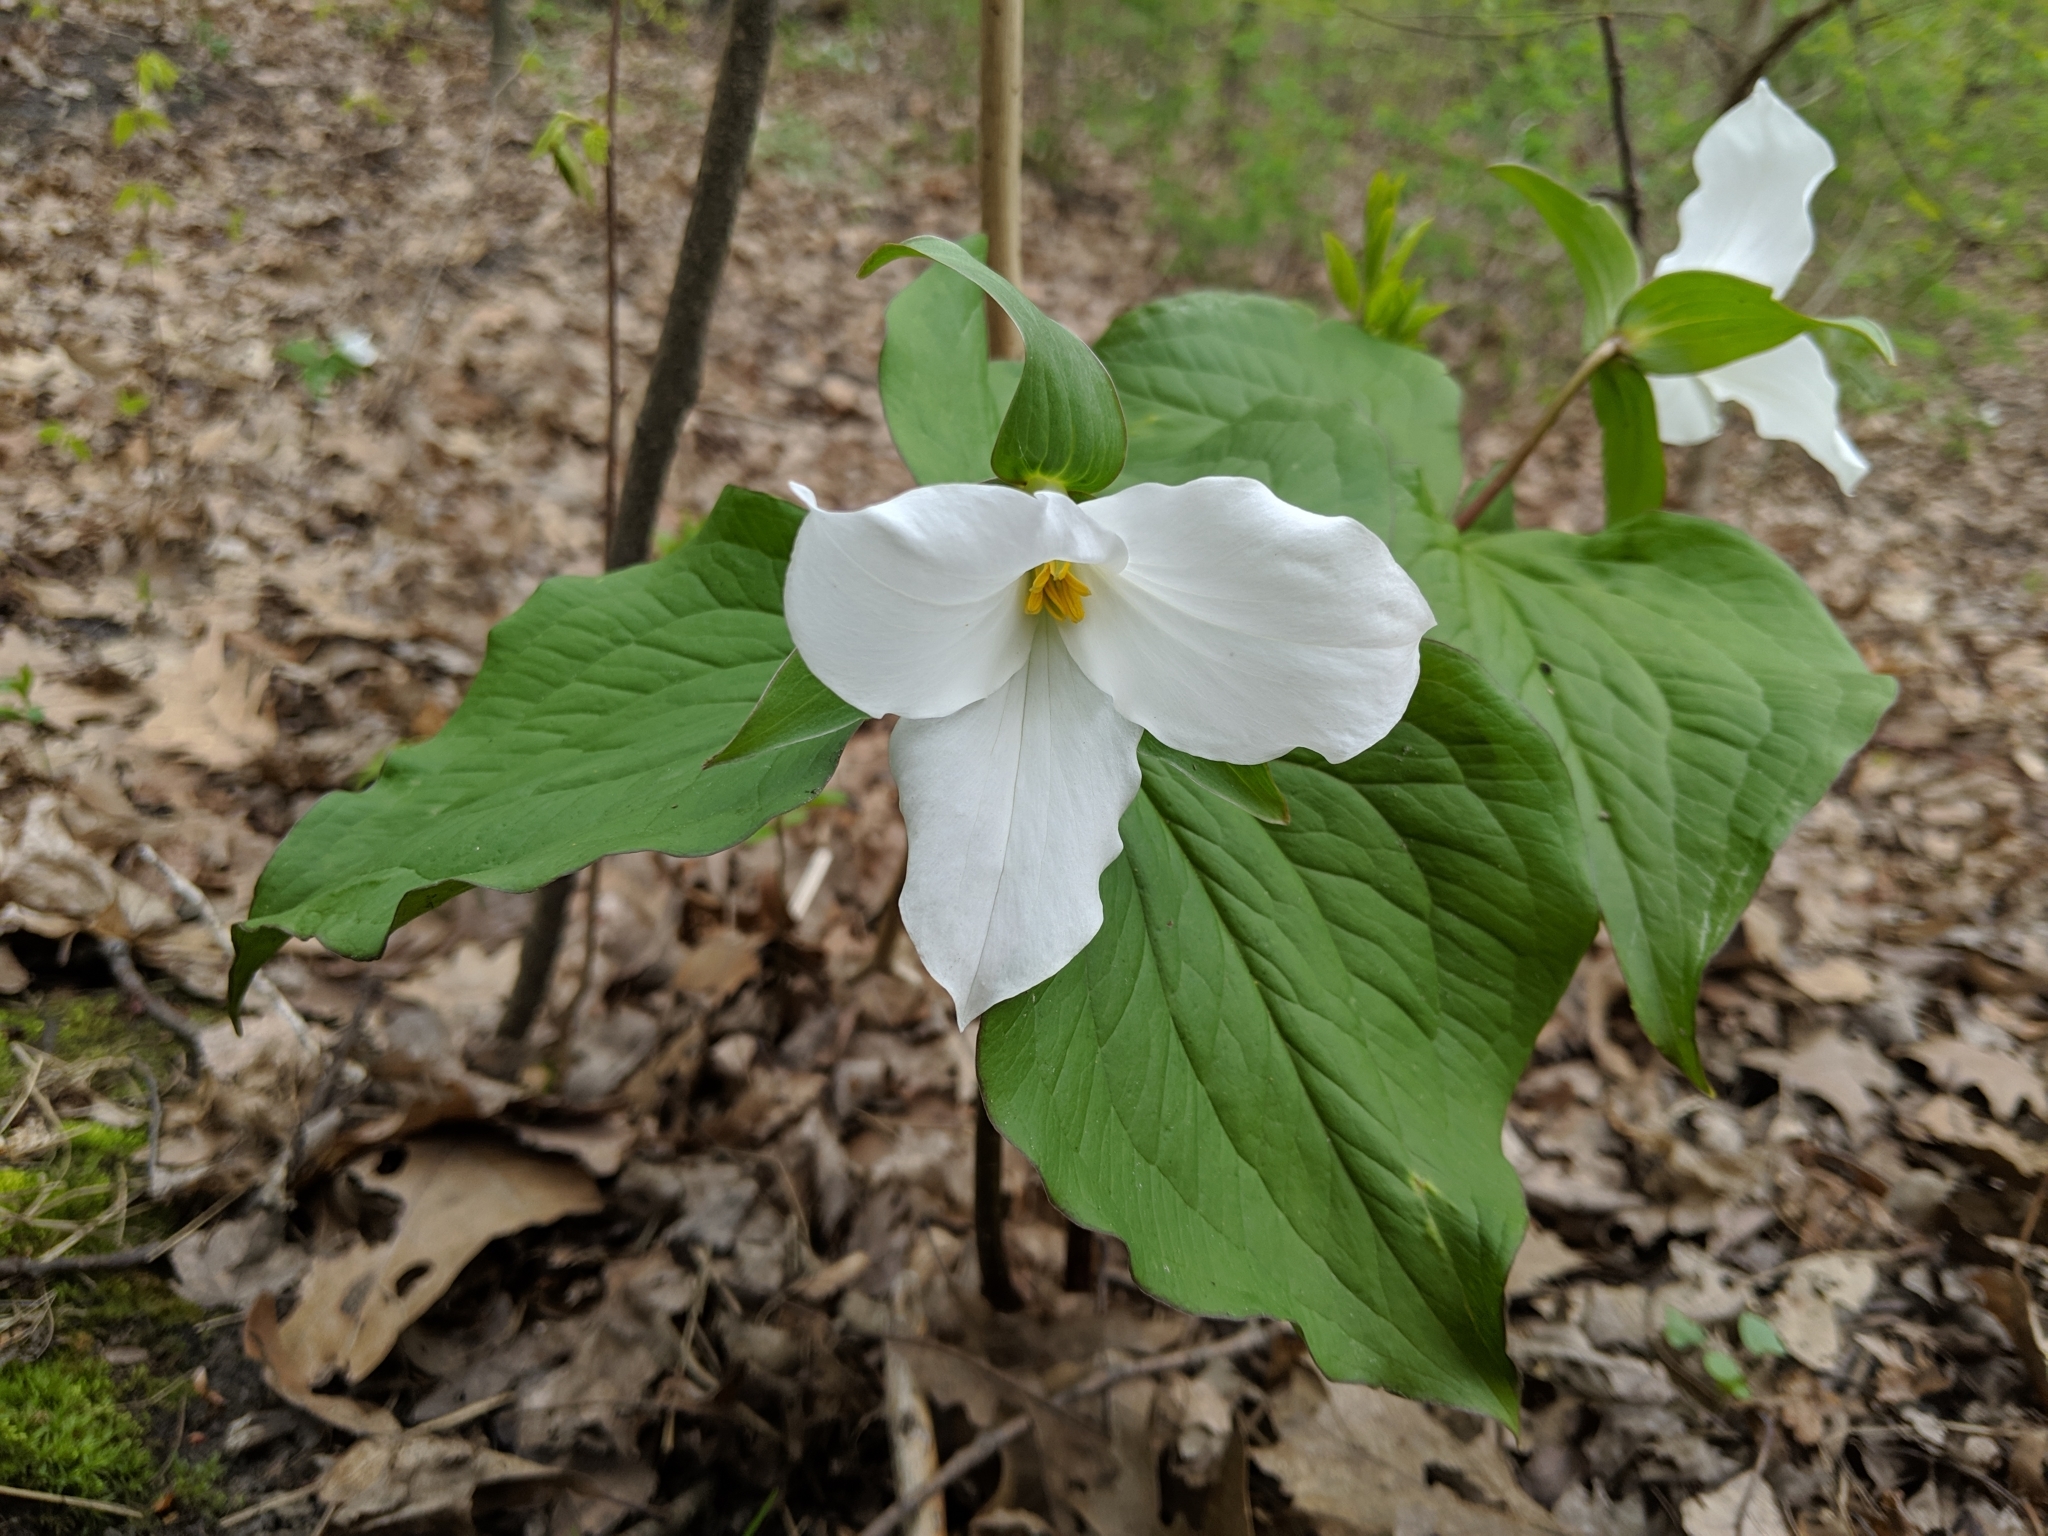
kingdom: Plantae
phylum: Tracheophyta
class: Liliopsida
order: Liliales
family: Melanthiaceae
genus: Trillium
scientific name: Trillium grandiflorum
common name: Great white trillium
